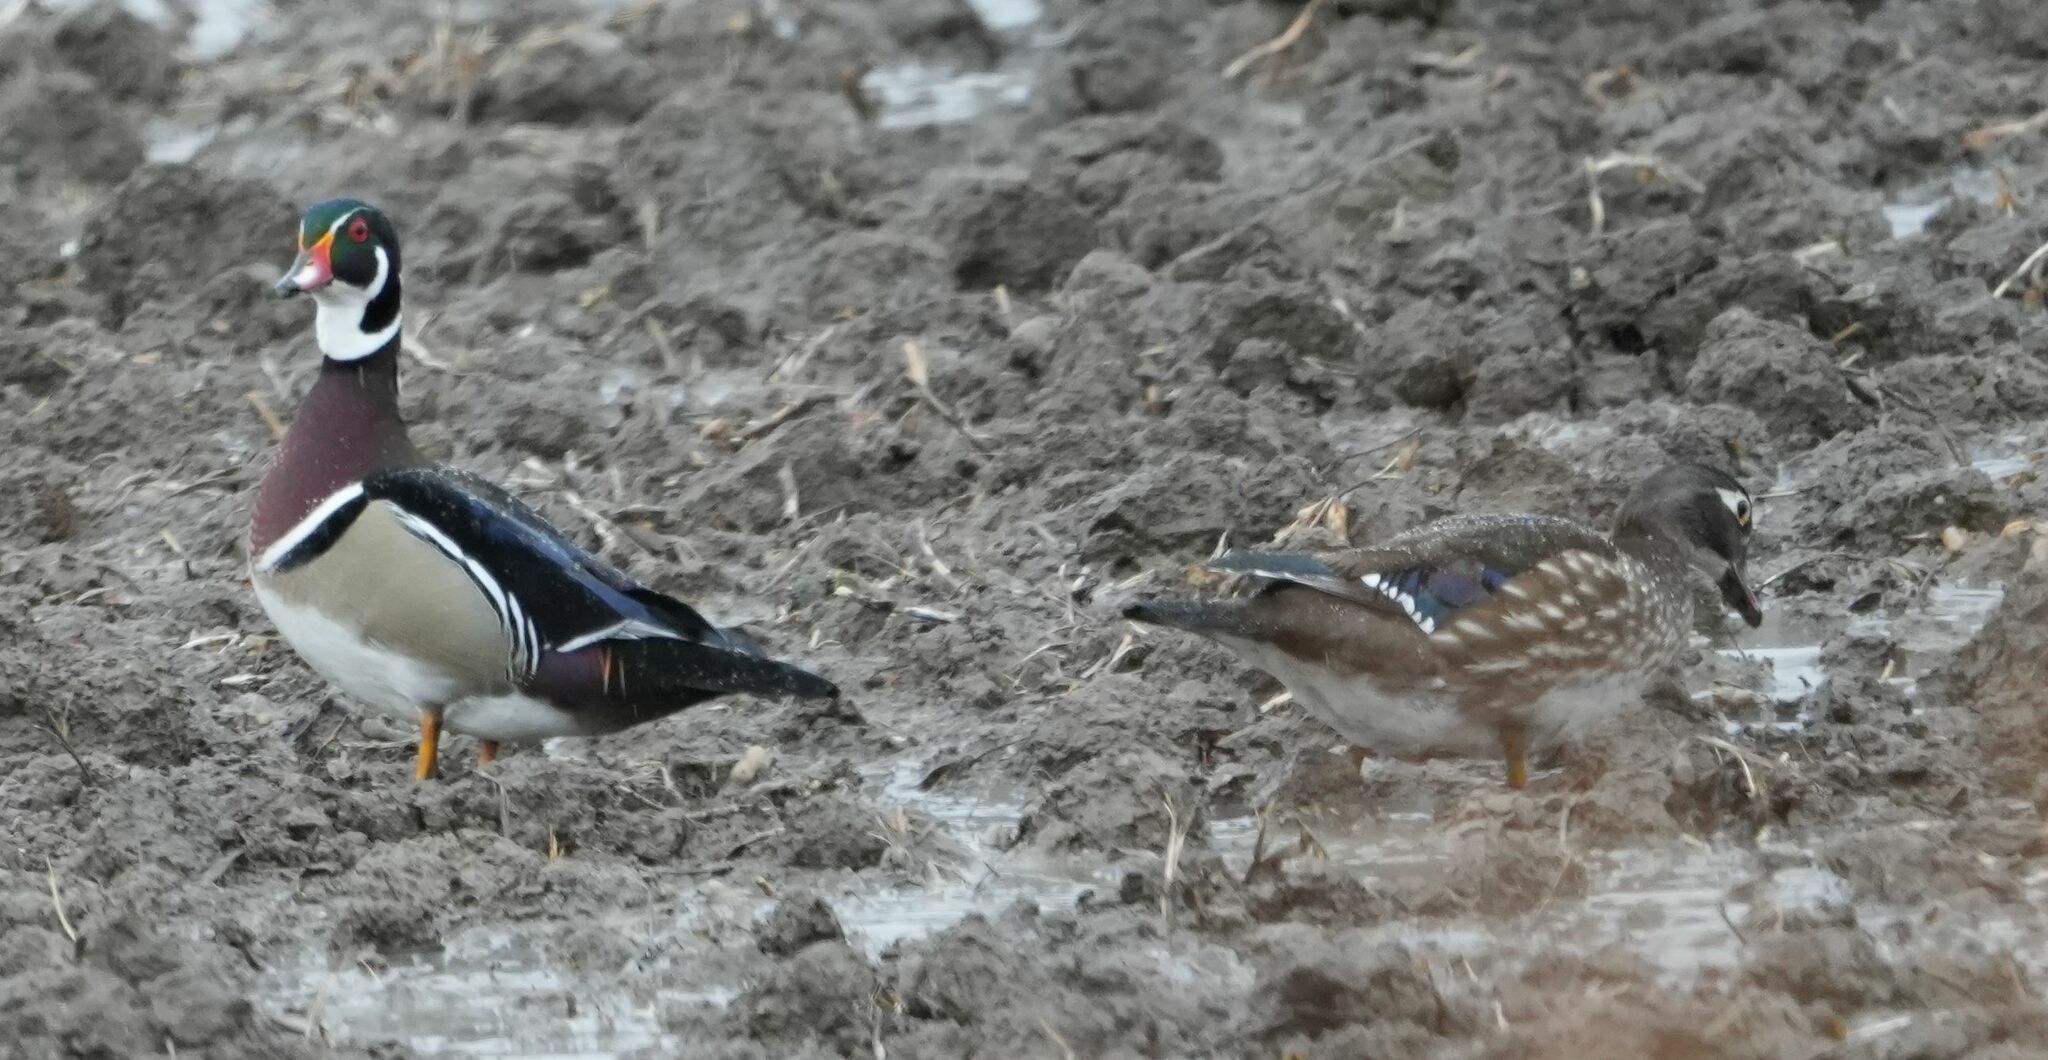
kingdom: Animalia
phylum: Chordata
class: Aves
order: Anseriformes
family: Anatidae
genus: Aix
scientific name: Aix sponsa
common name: Wood duck
